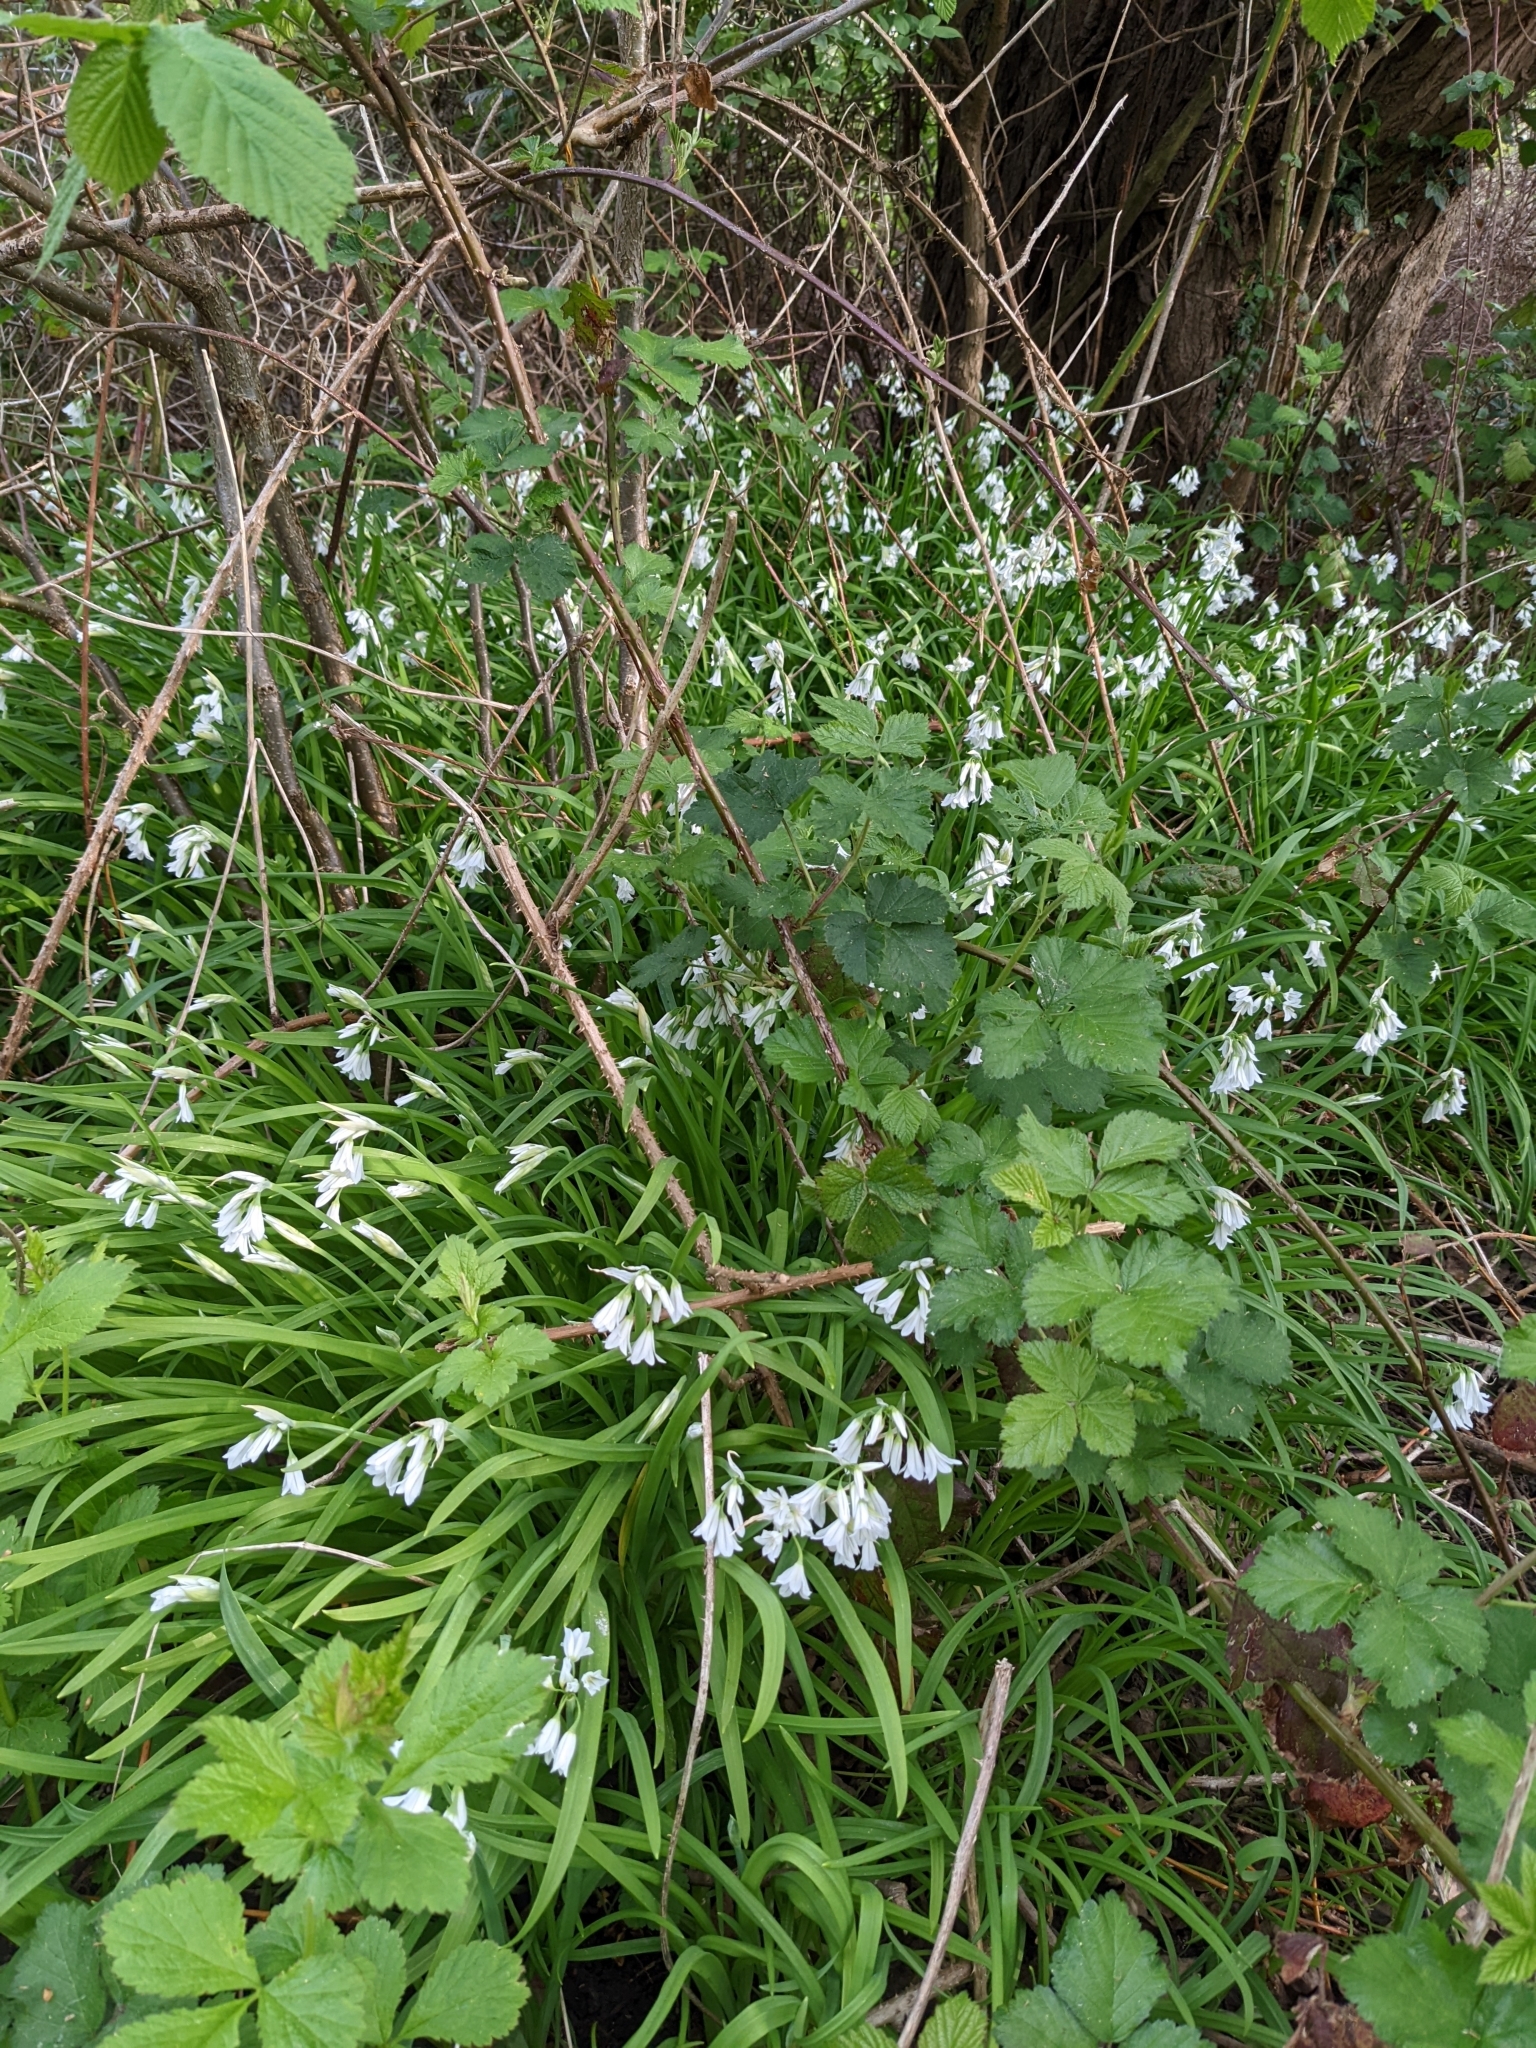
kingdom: Plantae
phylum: Tracheophyta
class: Liliopsida
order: Asparagales
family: Amaryllidaceae
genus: Allium
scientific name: Allium triquetrum
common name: Three-cornered garlic
